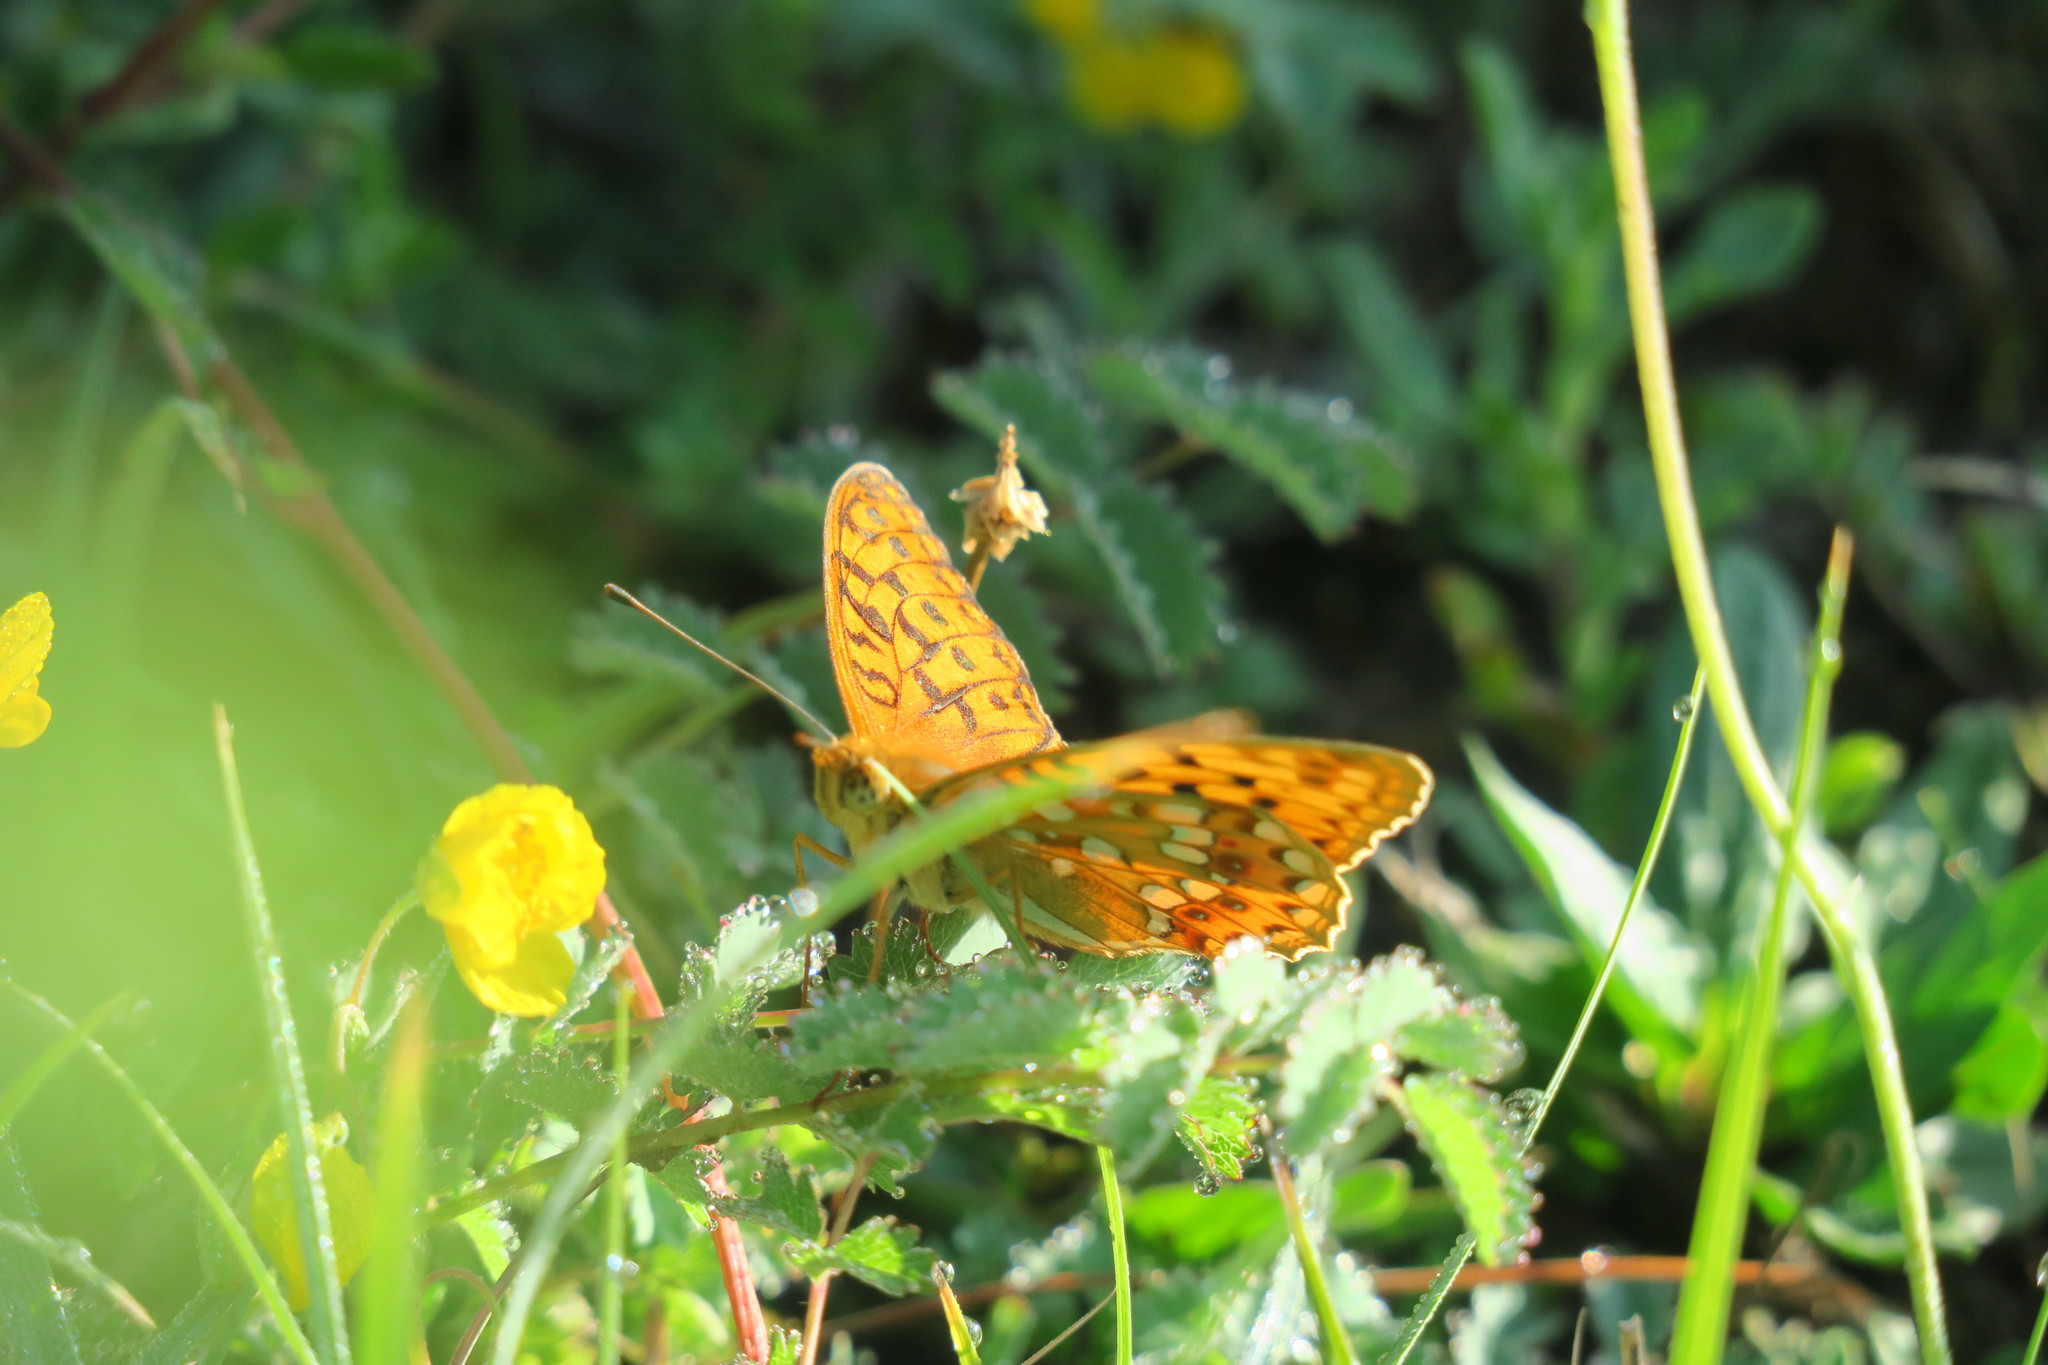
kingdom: Animalia
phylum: Arthropoda
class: Insecta
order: Lepidoptera
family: Nymphalidae
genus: Fabriciana
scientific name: Fabriciana adippe
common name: High brown fritillary
